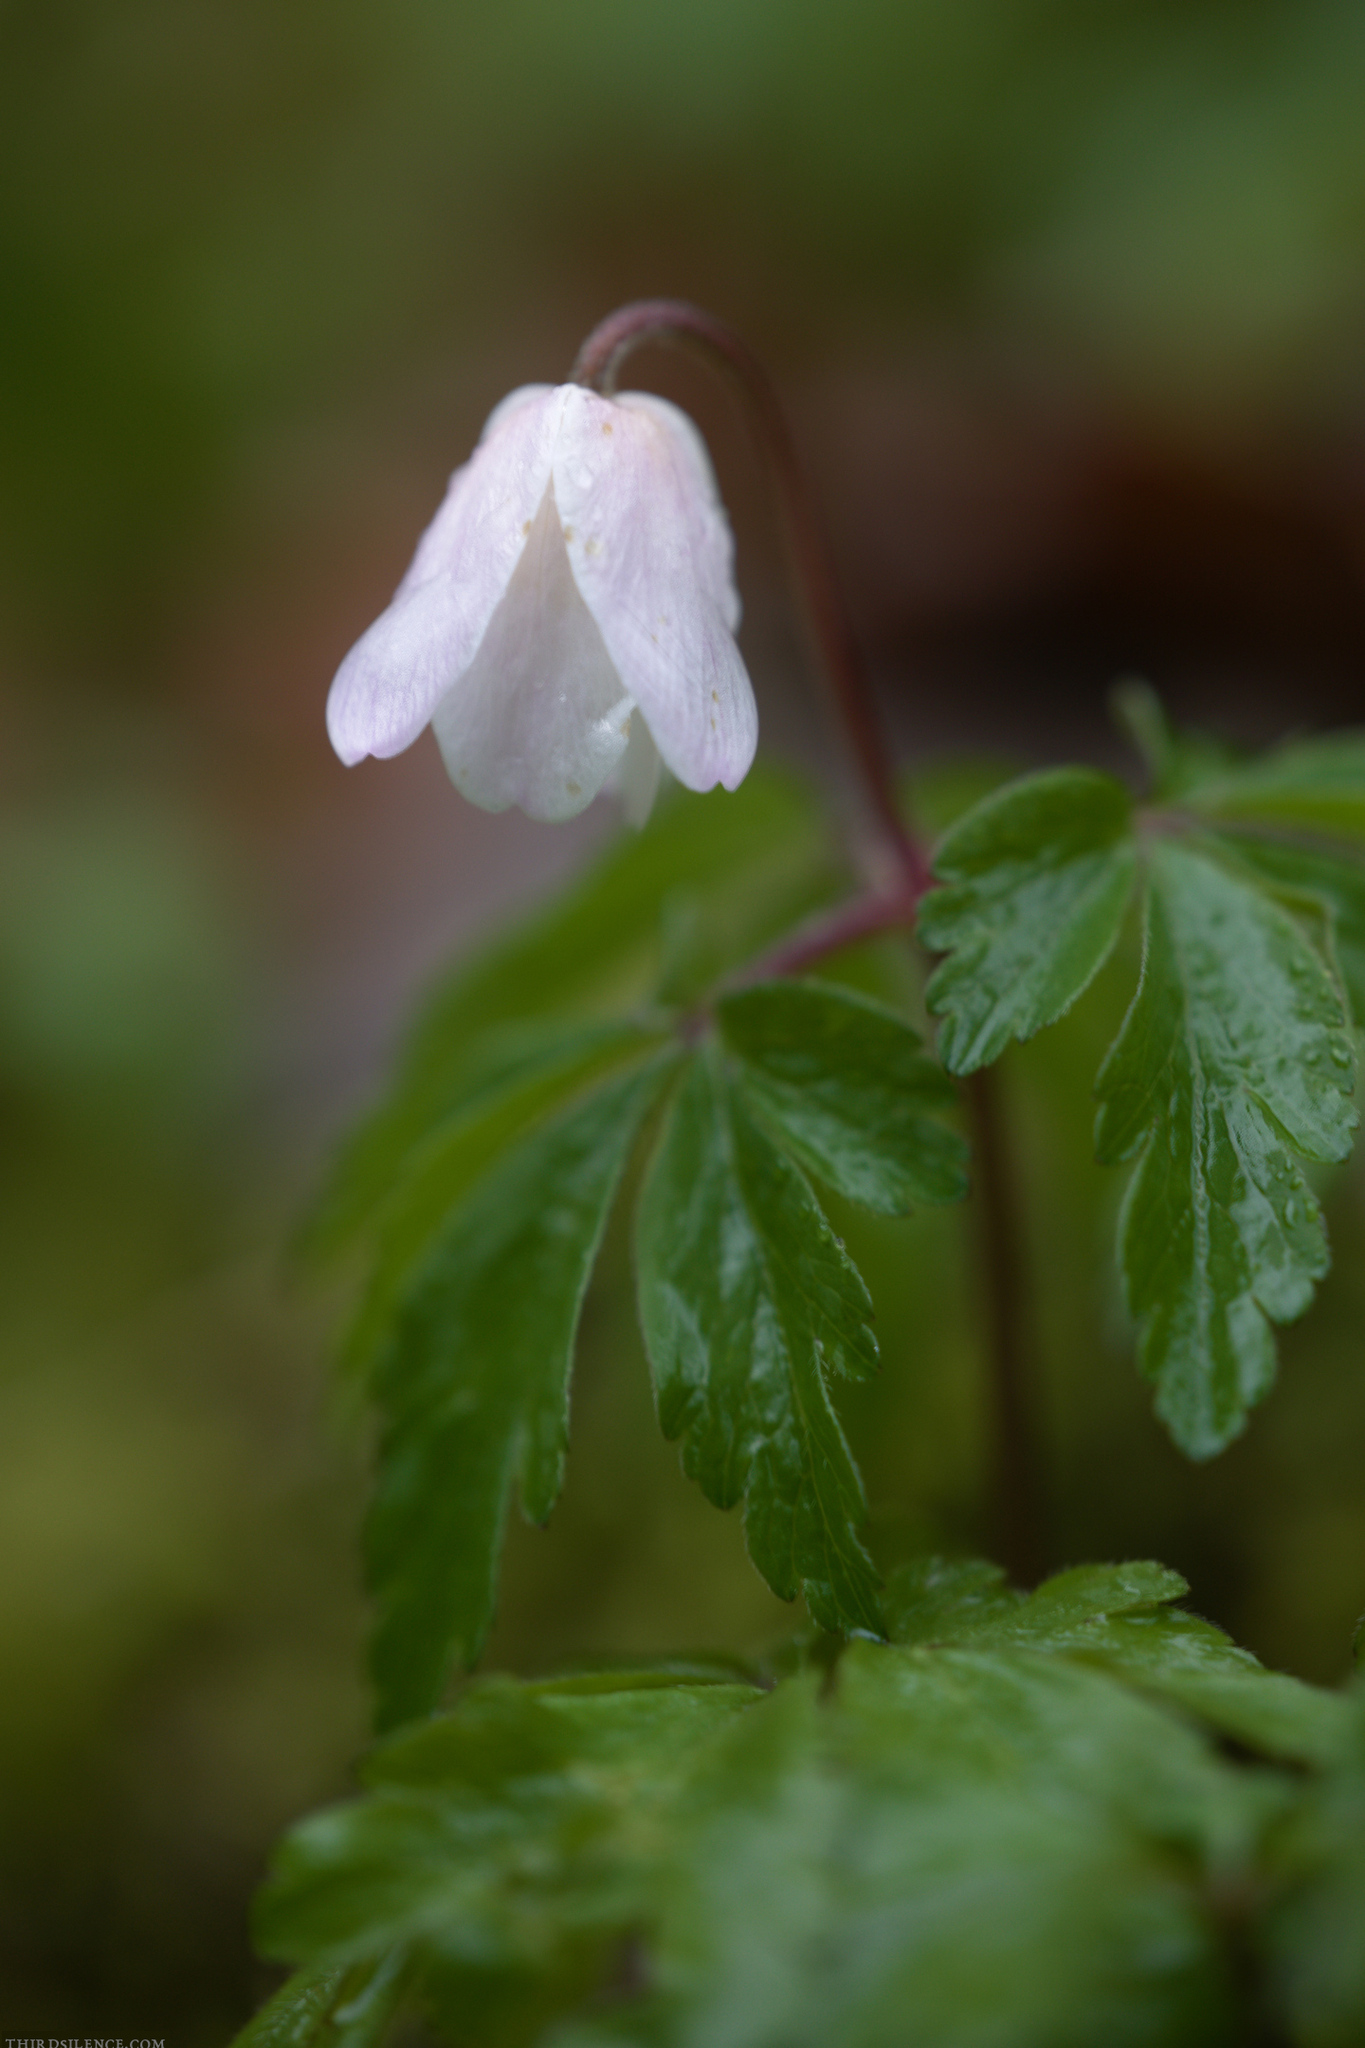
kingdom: Plantae
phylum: Tracheophyta
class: Magnoliopsida
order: Ranunculales
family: Ranunculaceae
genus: Anemone
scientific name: Anemone nemorosa
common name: Wood anemone
